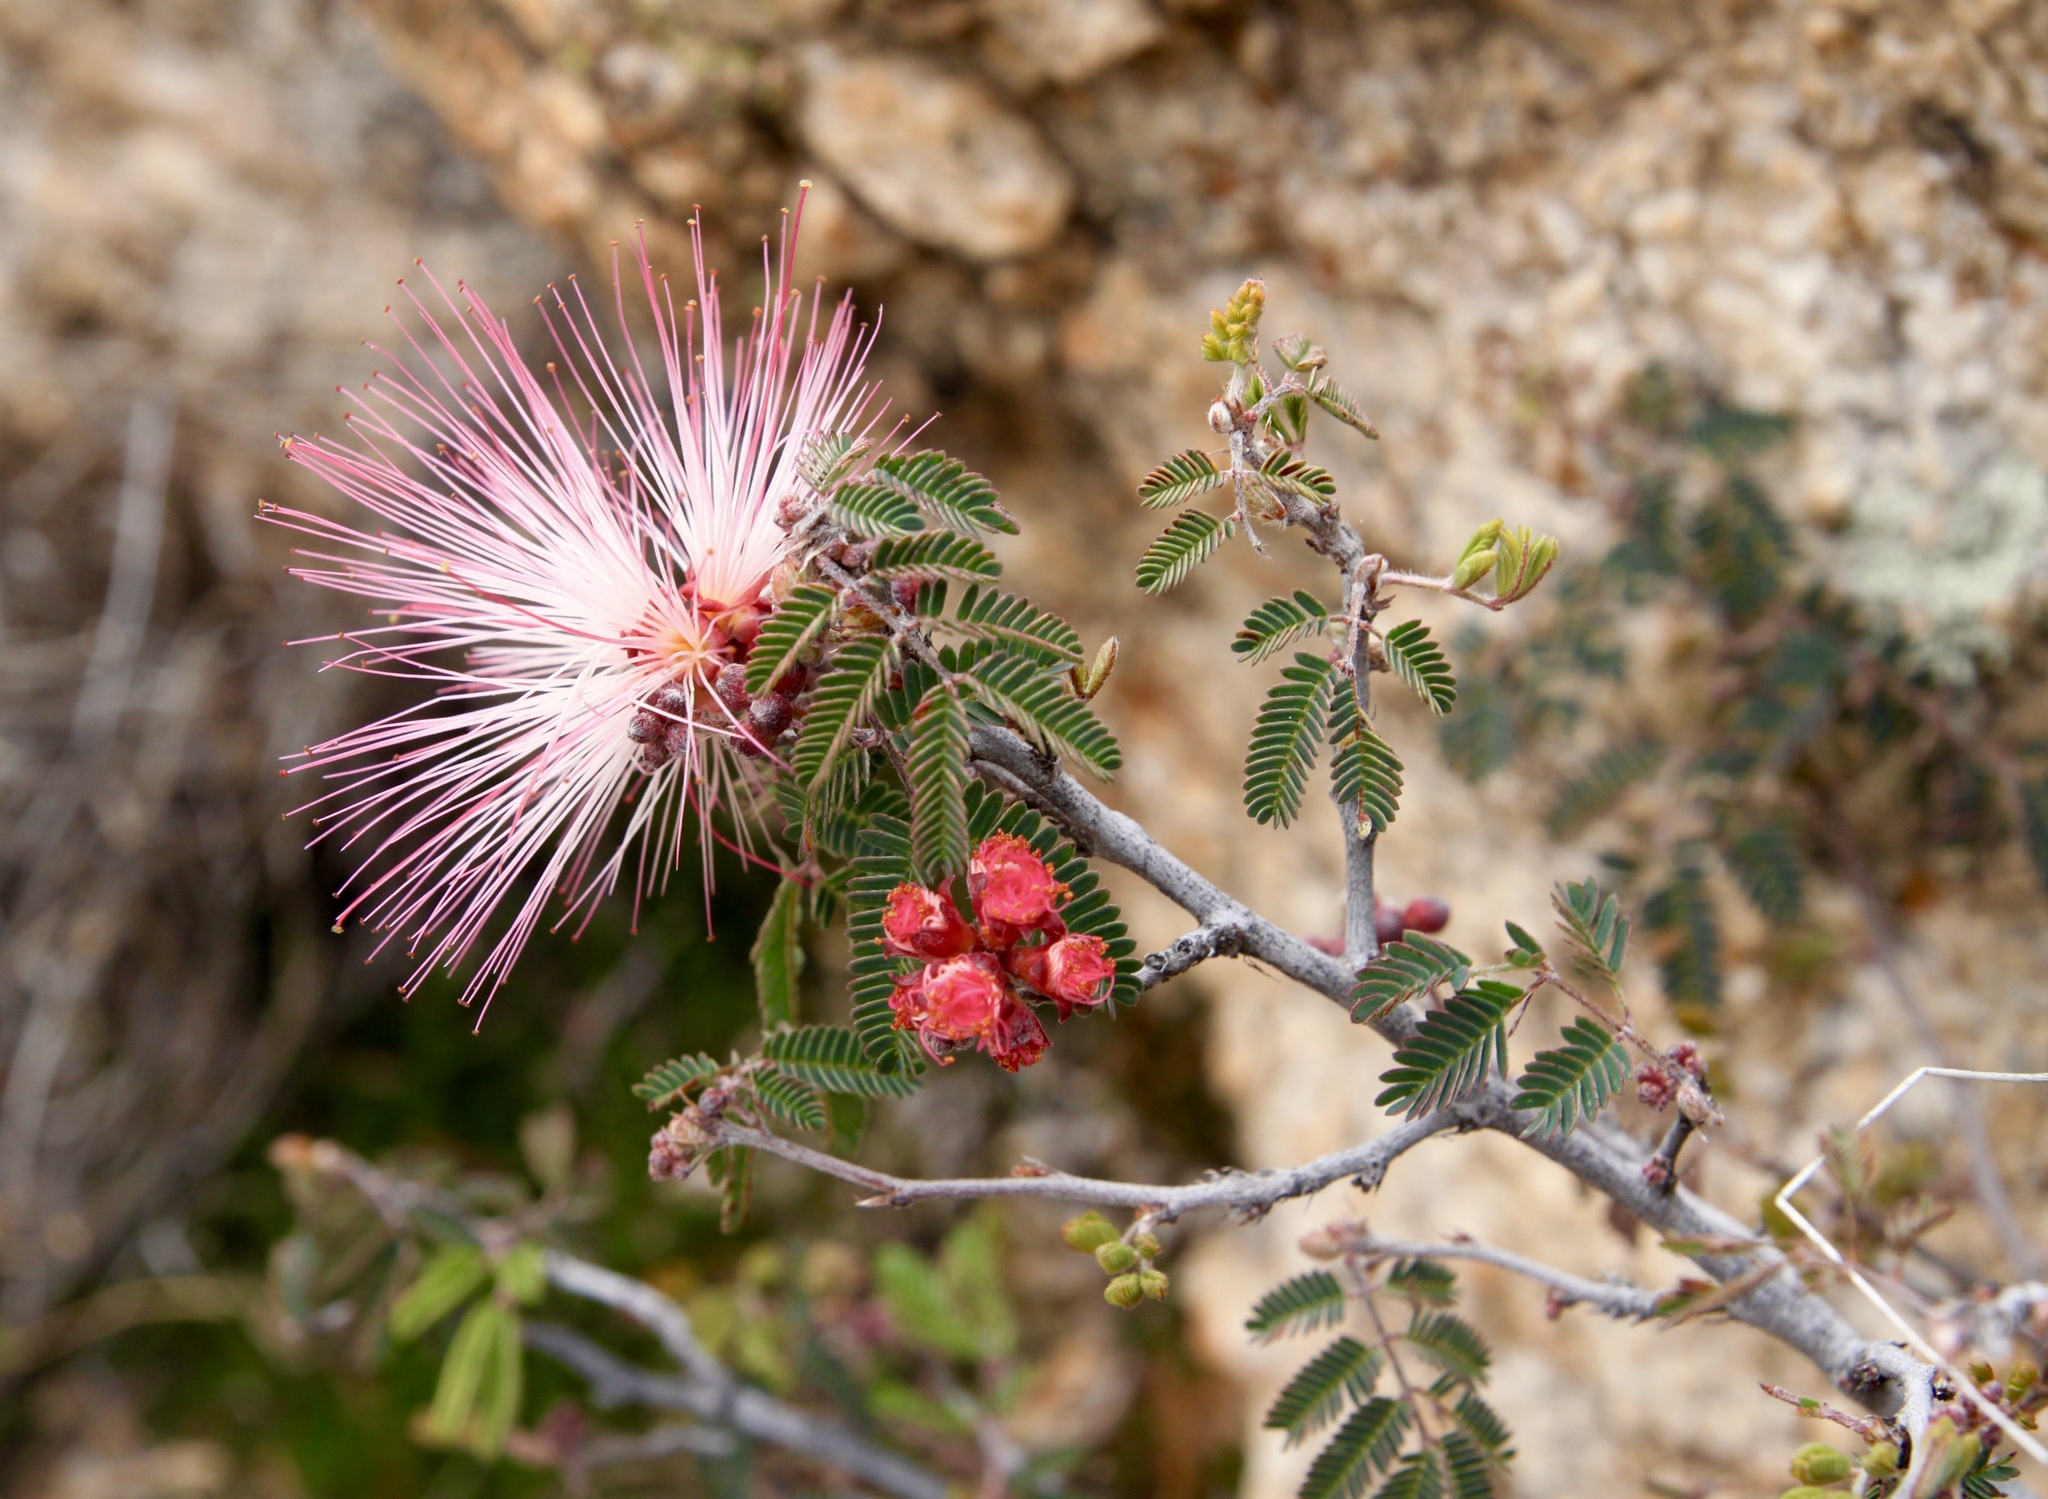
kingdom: Plantae
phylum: Tracheophyta
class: Magnoliopsida
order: Fabales
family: Fabaceae
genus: Calliandra
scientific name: Calliandra eriophylla
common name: Fairy-duster
